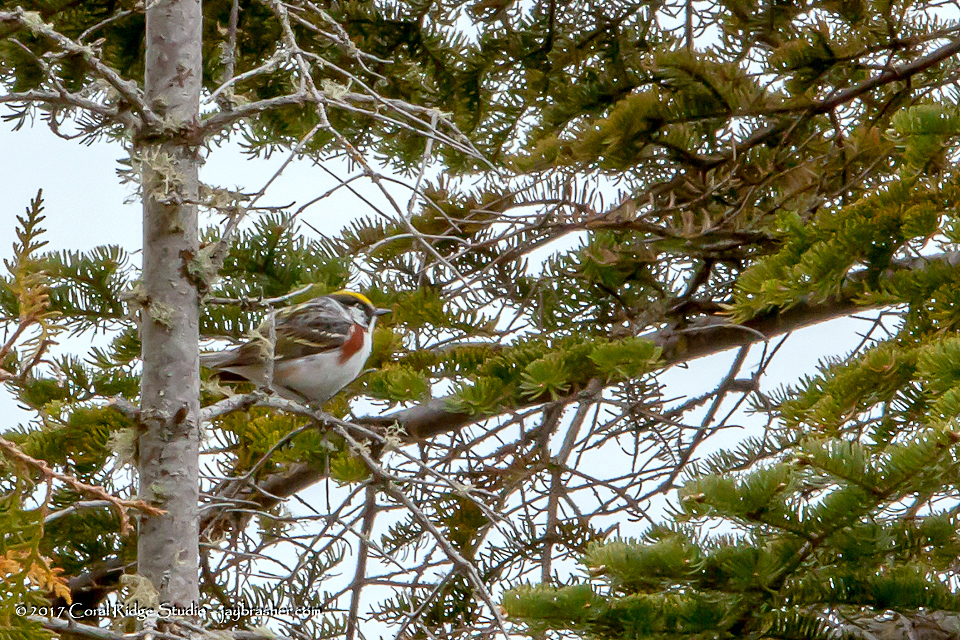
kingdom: Animalia
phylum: Chordata
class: Aves
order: Passeriformes
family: Parulidae
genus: Setophaga
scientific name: Setophaga pensylvanica
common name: Chestnut-sided warbler
